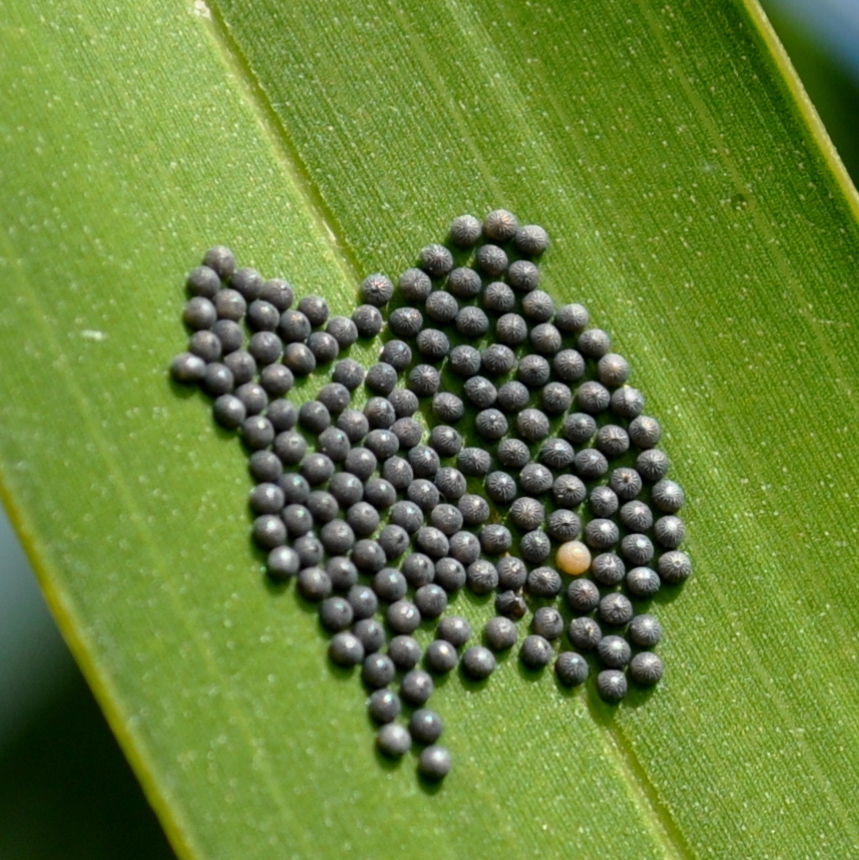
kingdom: Animalia
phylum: Arthropoda
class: Insecta
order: Lepidoptera
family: Nymphalidae
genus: Brassolis
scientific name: Brassolis astyra
